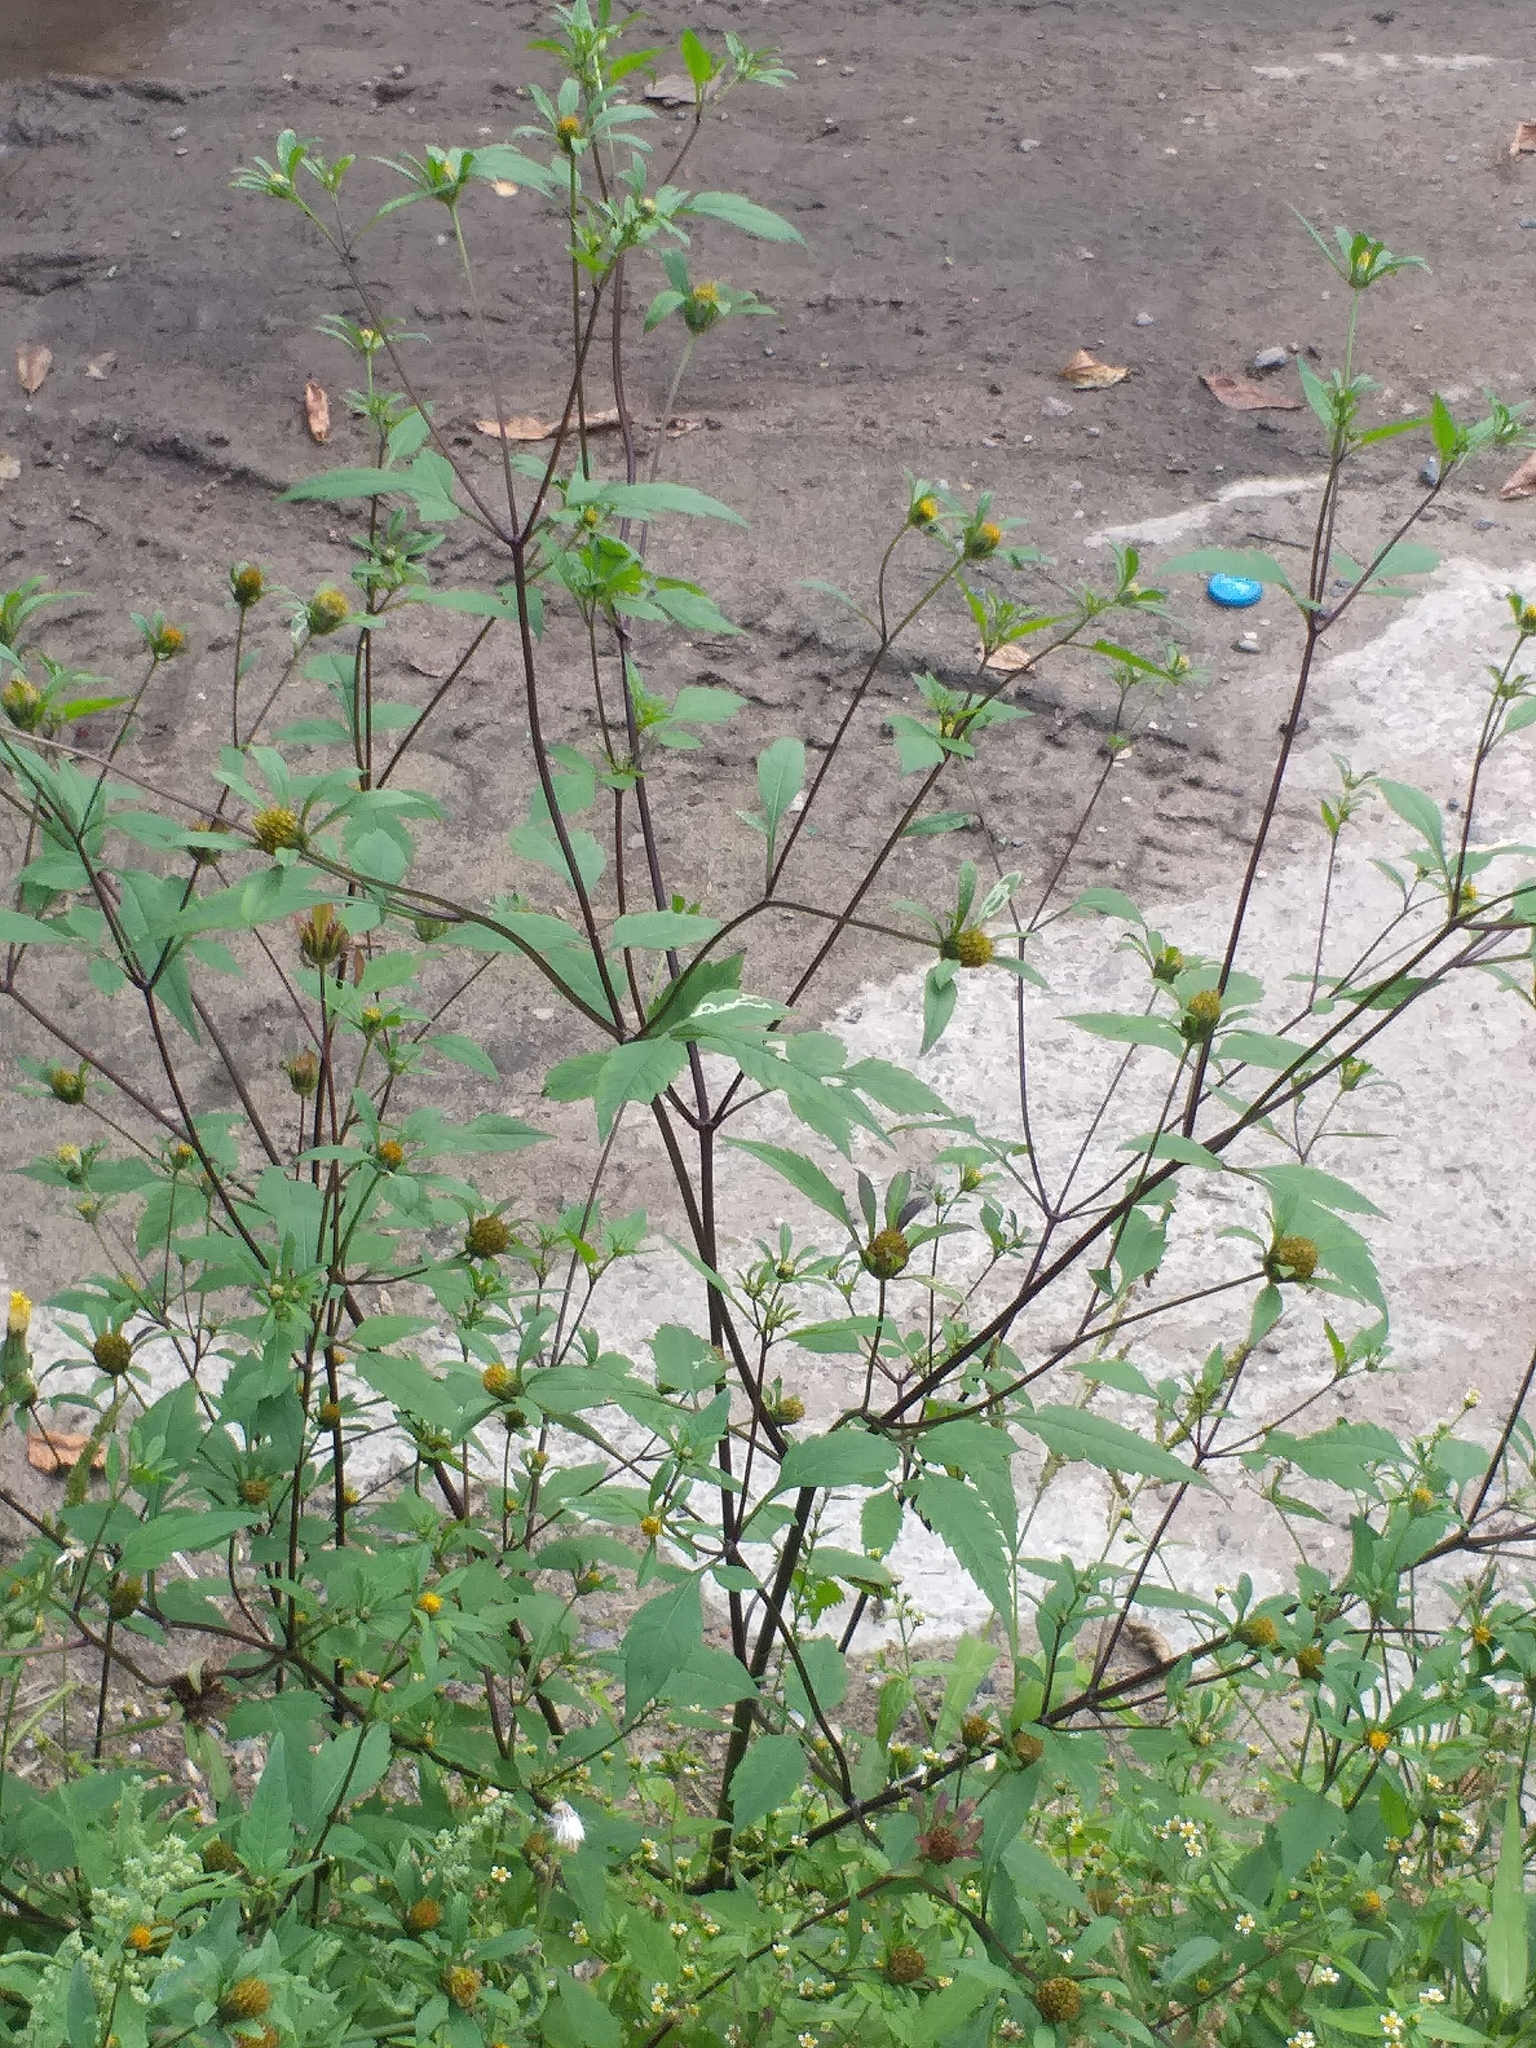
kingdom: Plantae
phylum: Tracheophyta
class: Magnoliopsida
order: Asterales
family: Asteraceae
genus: Bidens
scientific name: Bidens frondosa
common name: Beggarticks
